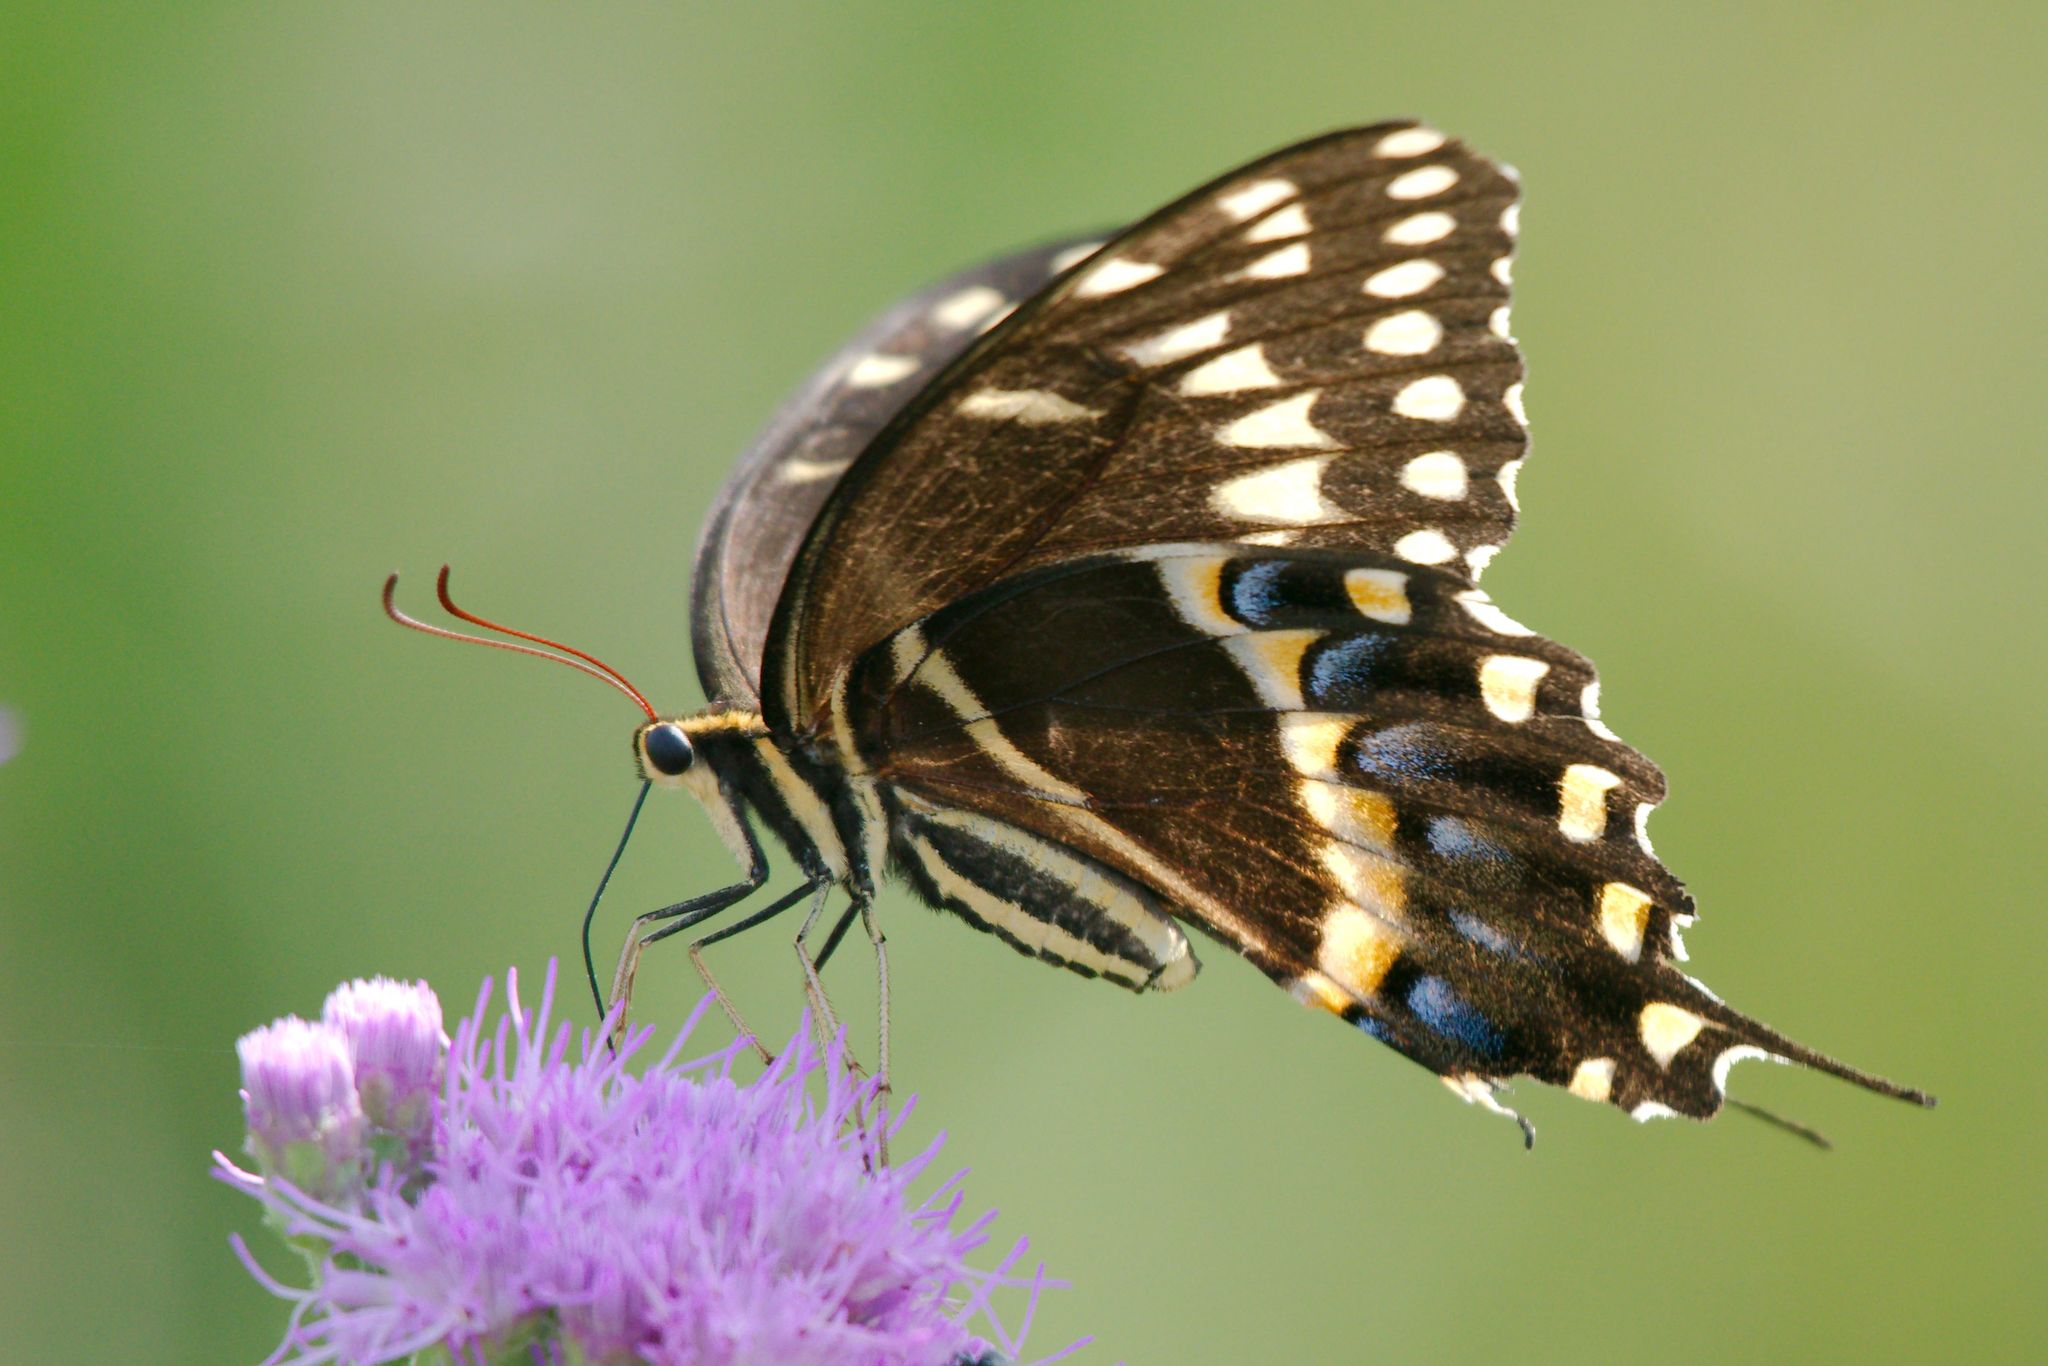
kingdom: Animalia
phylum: Arthropoda
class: Insecta
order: Lepidoptera
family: Papilionidae
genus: Papilio
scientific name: Papilio palamedes
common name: Palamedes swallowtail
